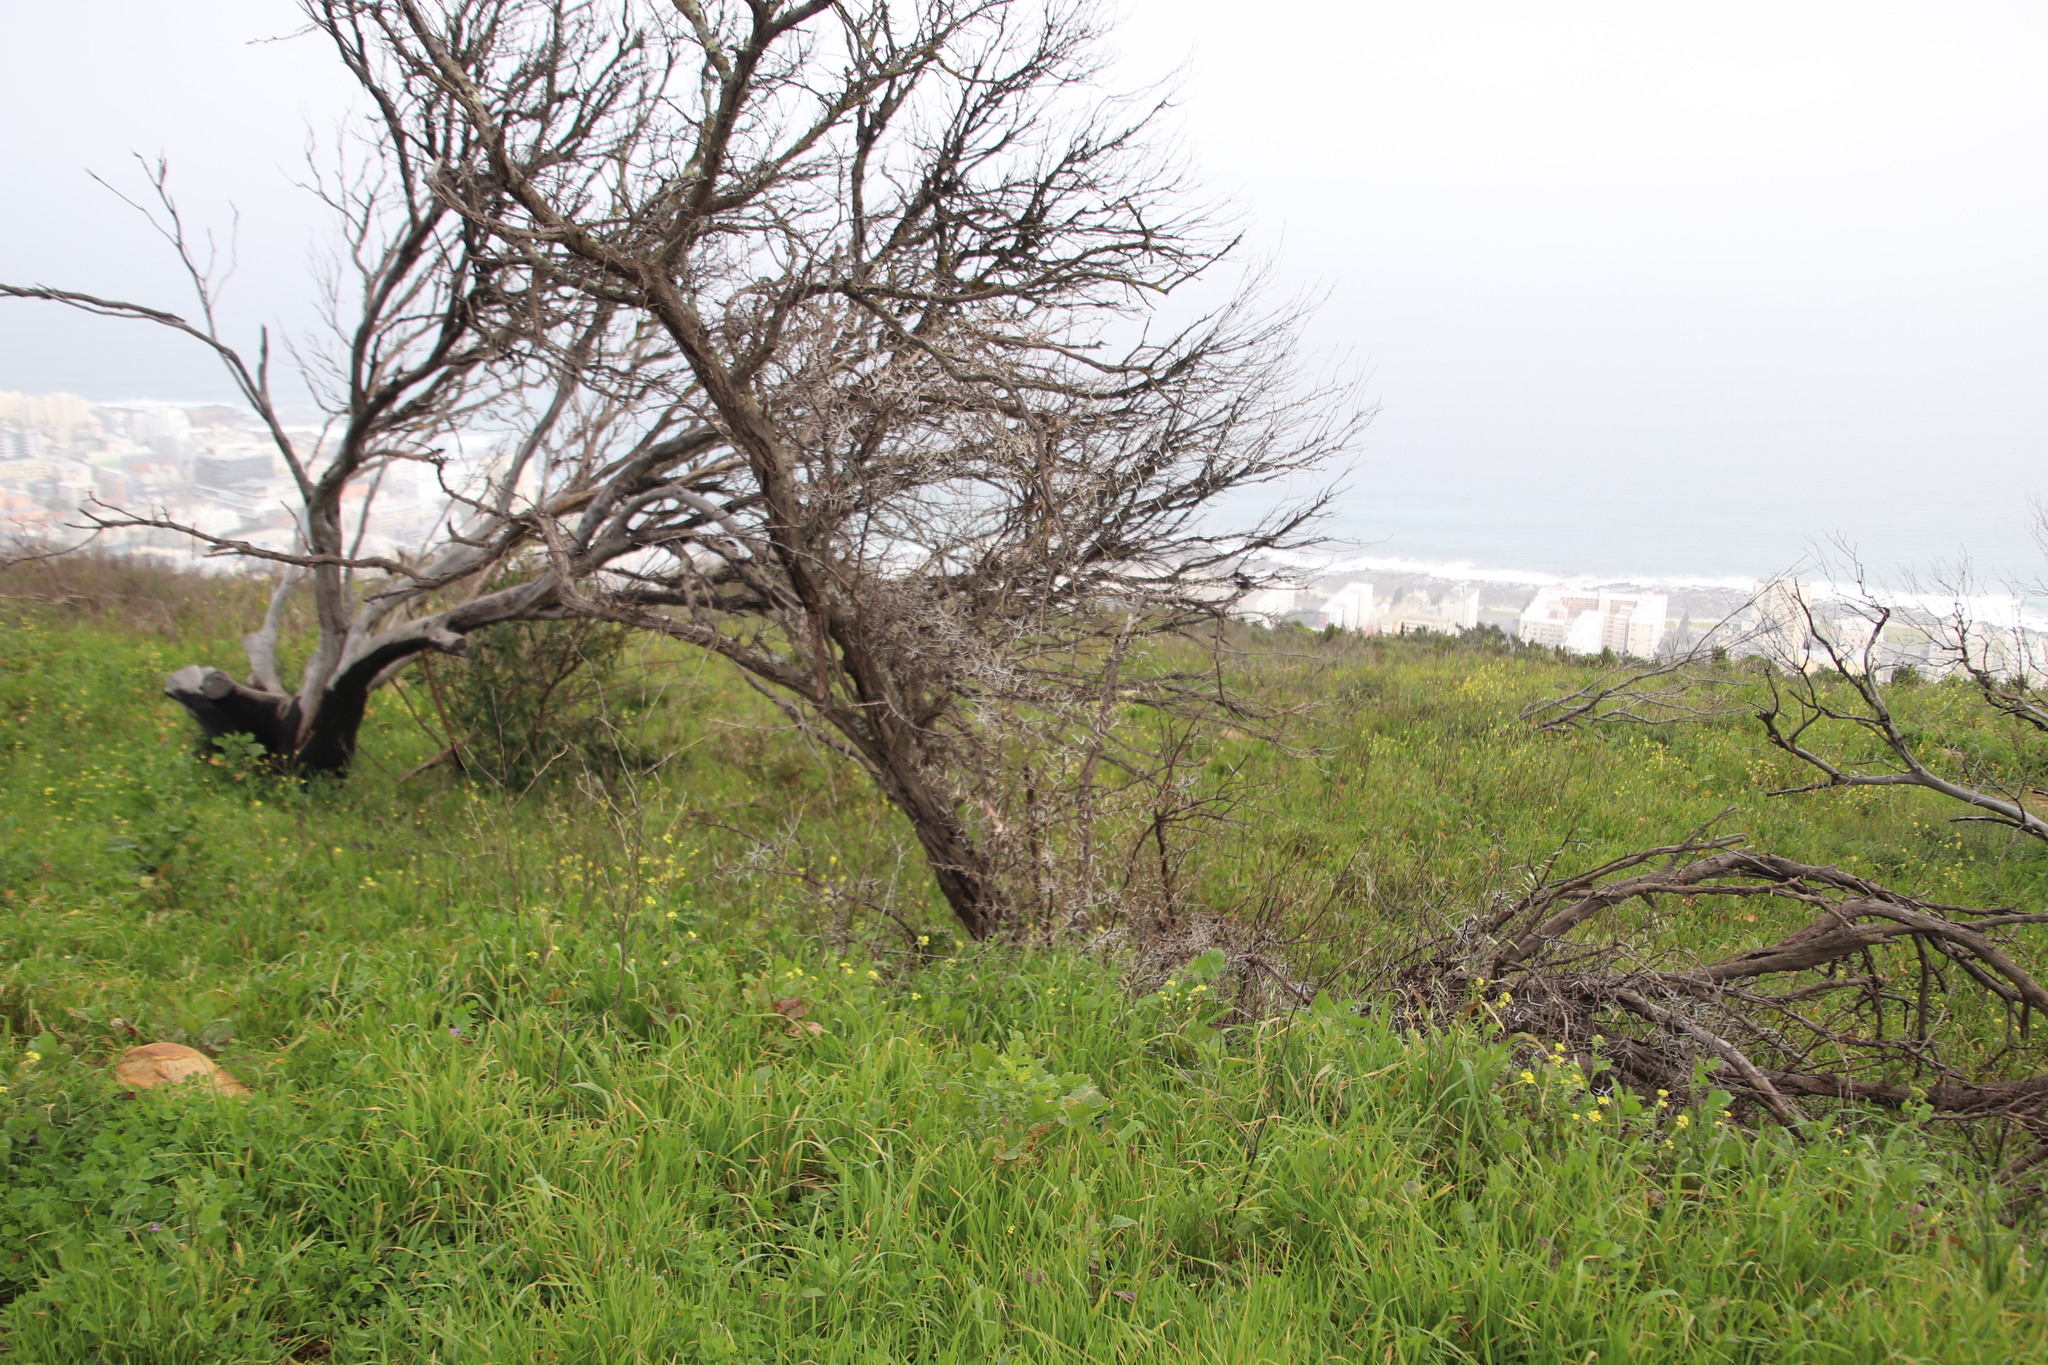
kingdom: Plantae
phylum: Tracheophyta
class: Magnoliopsida
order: Fabales
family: Fabaceae
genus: Vachellia
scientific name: Vachellia karroo
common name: Sweet thorn
